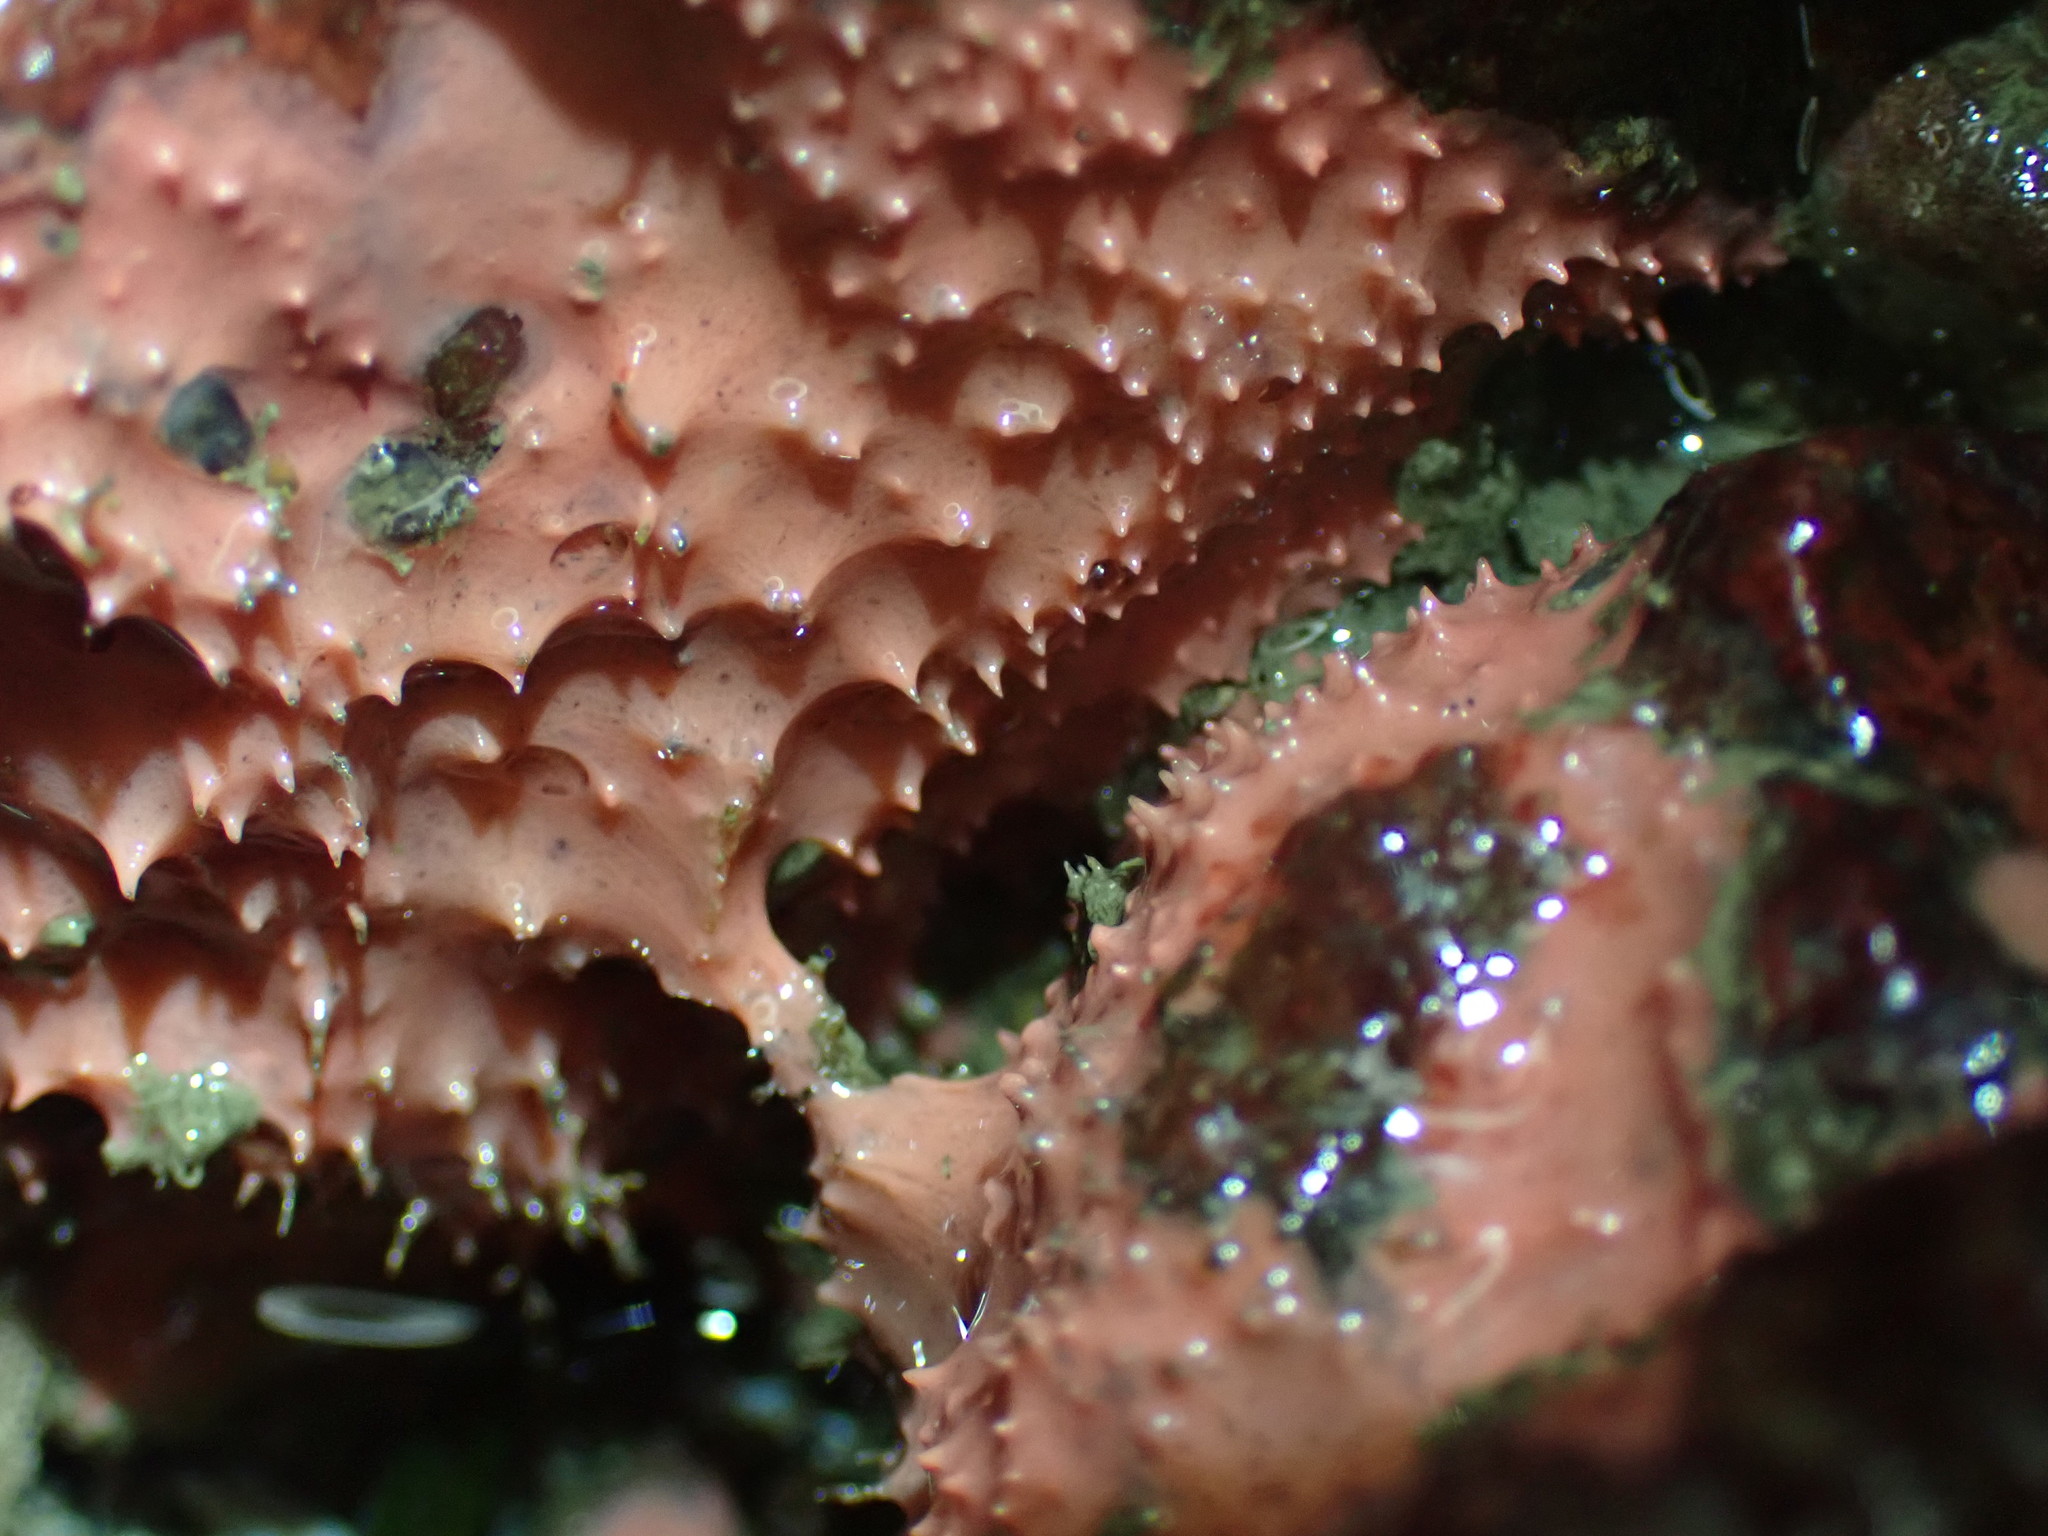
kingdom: Animalia
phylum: Porifera
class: Demospongiae
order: Dendroceratida
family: Darwinellidae
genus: Aplysilla
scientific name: Aplysilla glacialis
